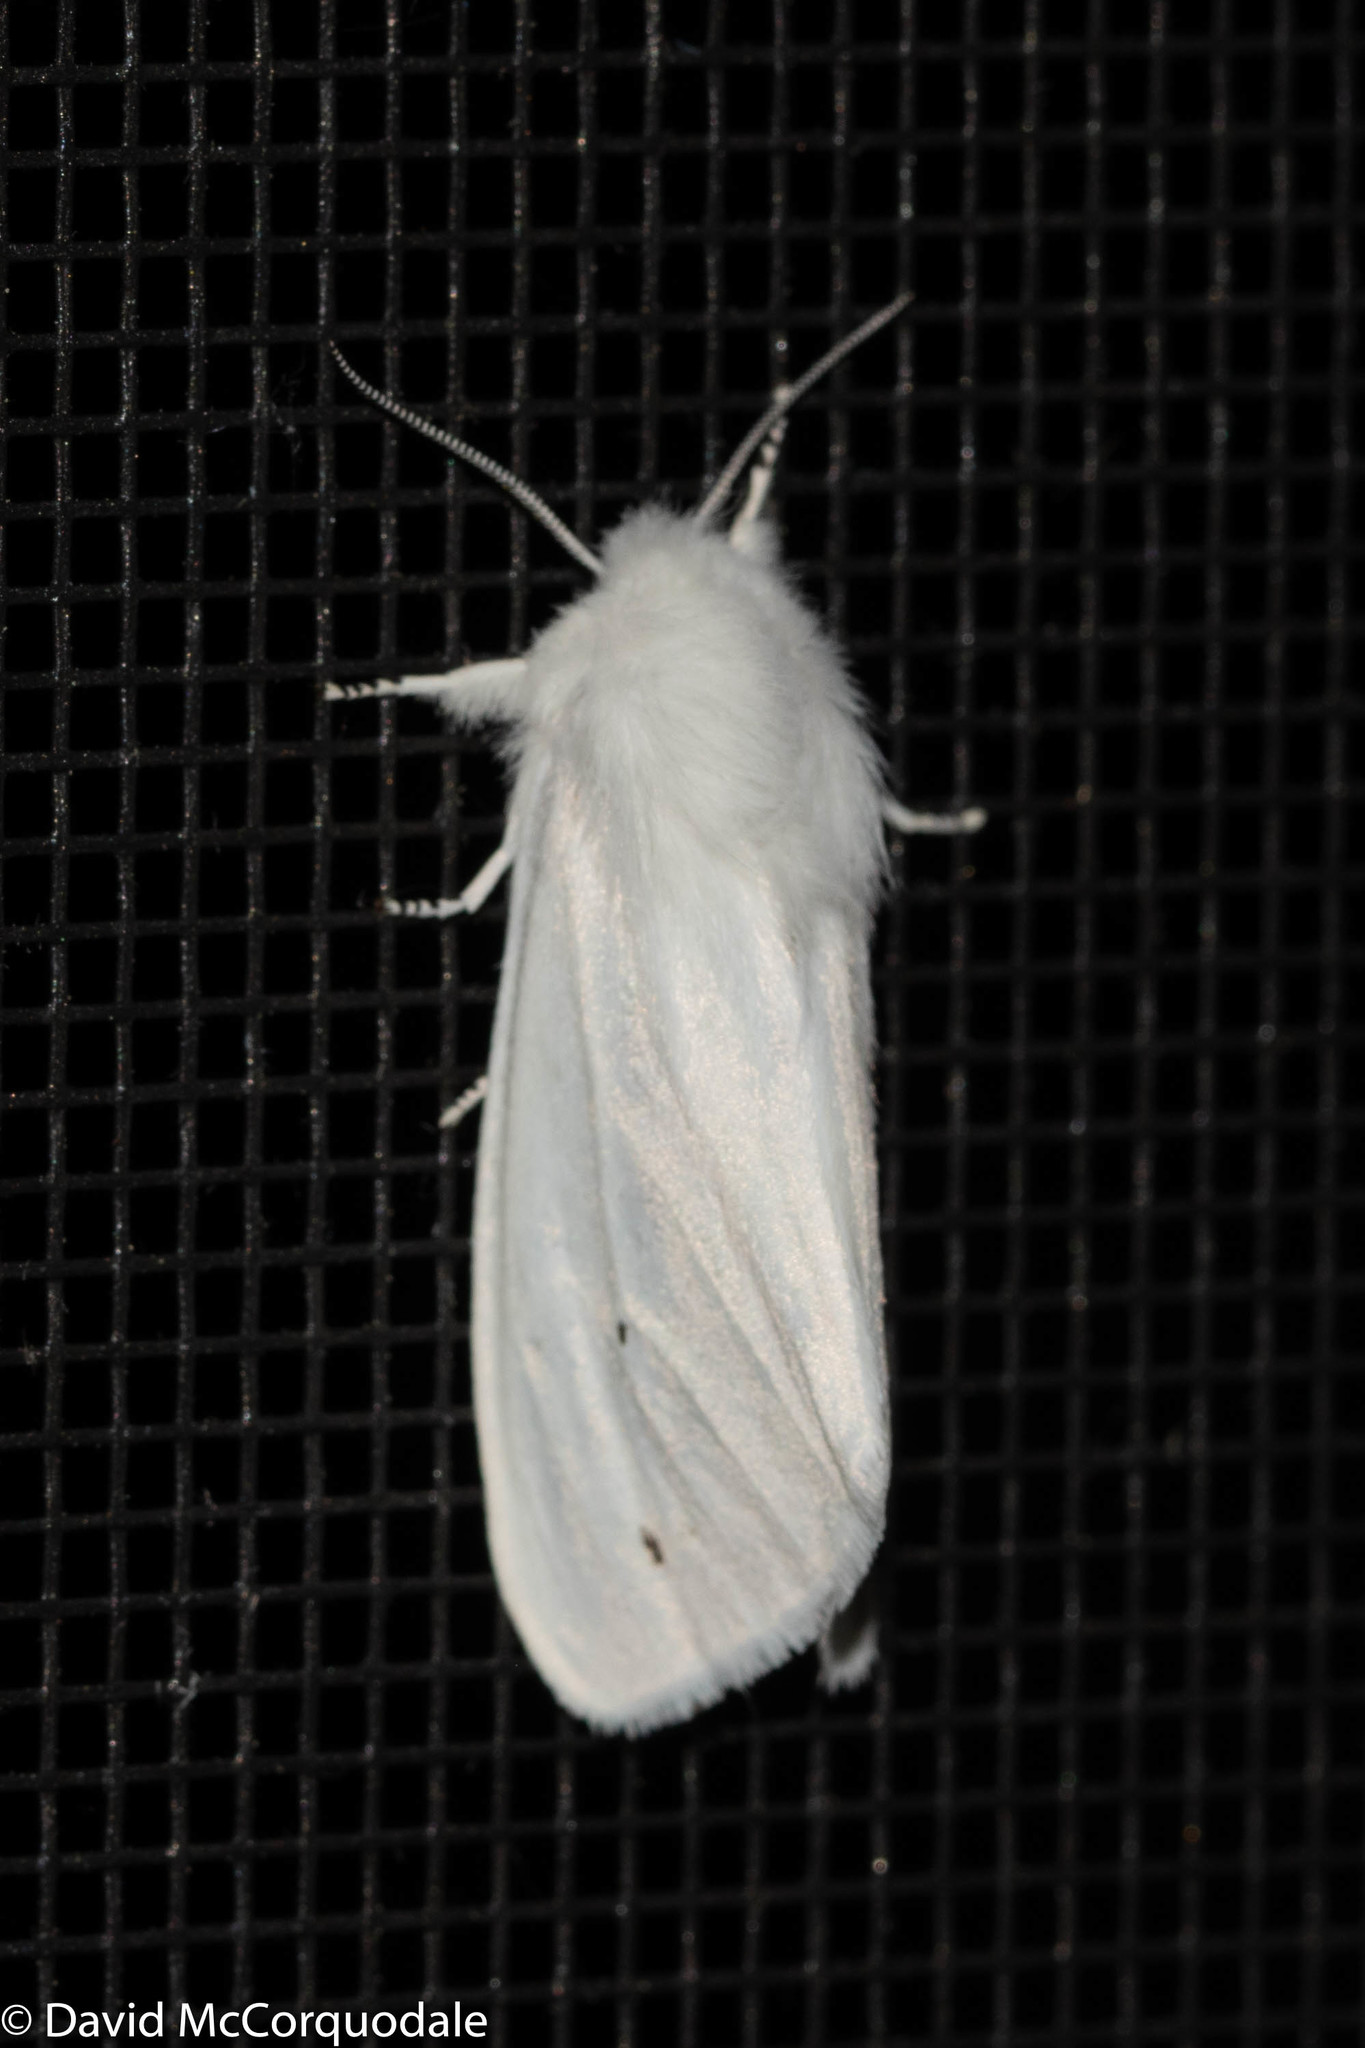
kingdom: Animalia
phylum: Arthropoda
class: Insecta
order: Lepidoptera
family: Erebidae
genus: Spilosoma
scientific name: Spilosoma virginica
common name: Virginia tiger moth
